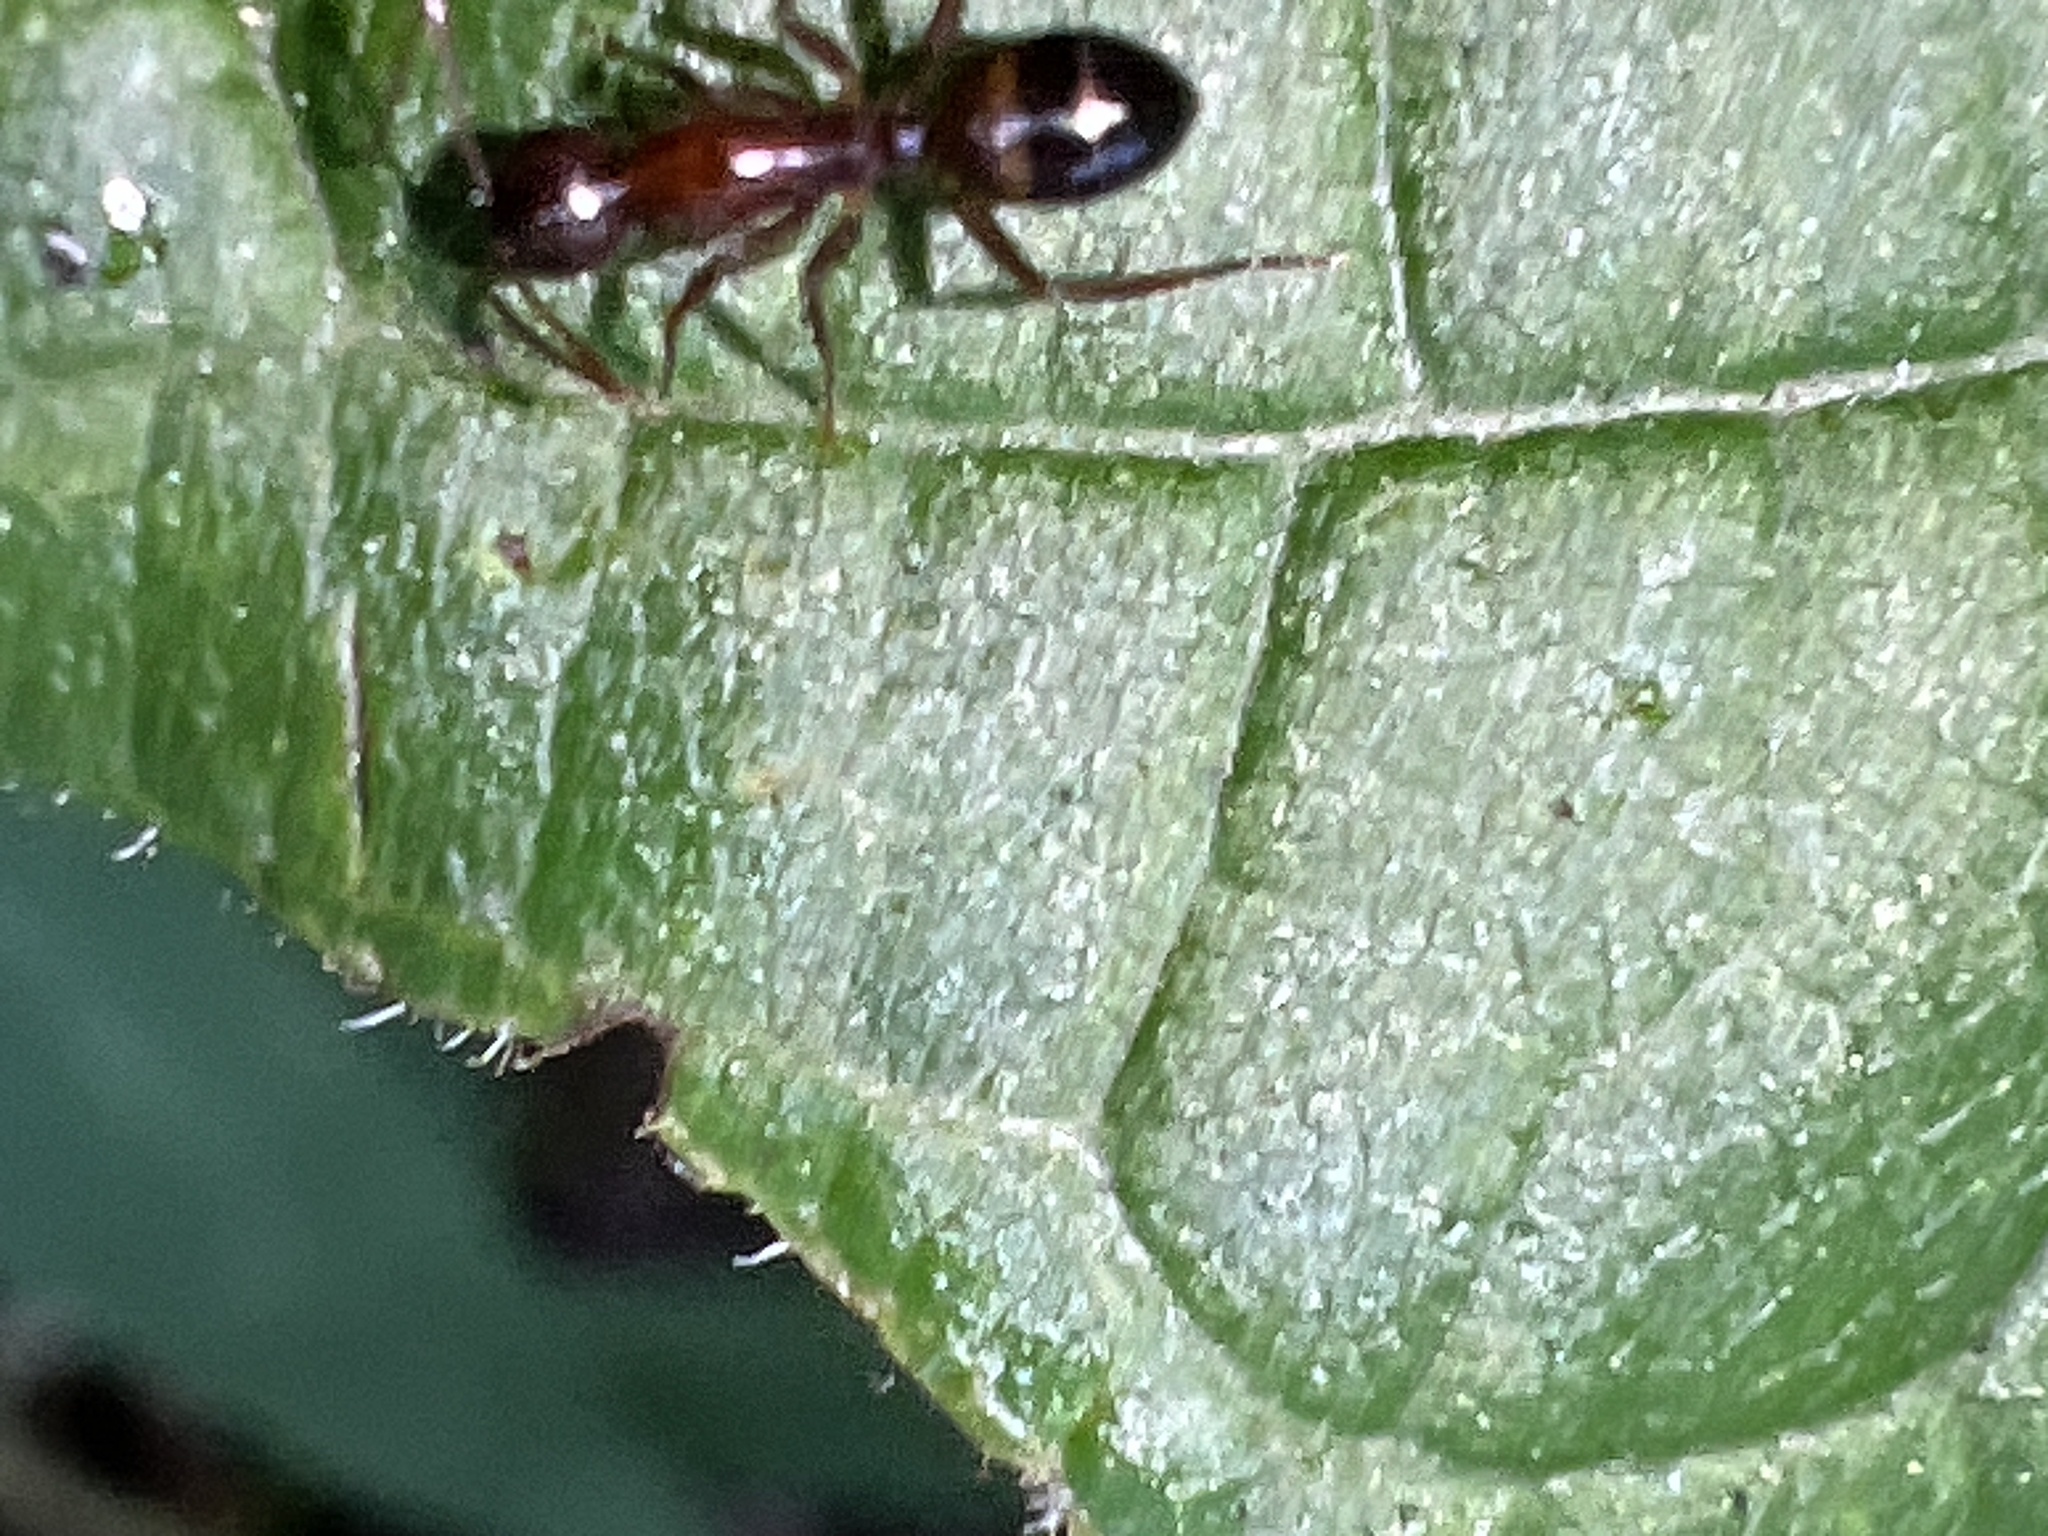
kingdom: Animalia
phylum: Arthropoda
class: Insecta
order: Hymenoptera
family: Formicidae
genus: Camponotus
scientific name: Camponotus subbarbatus
